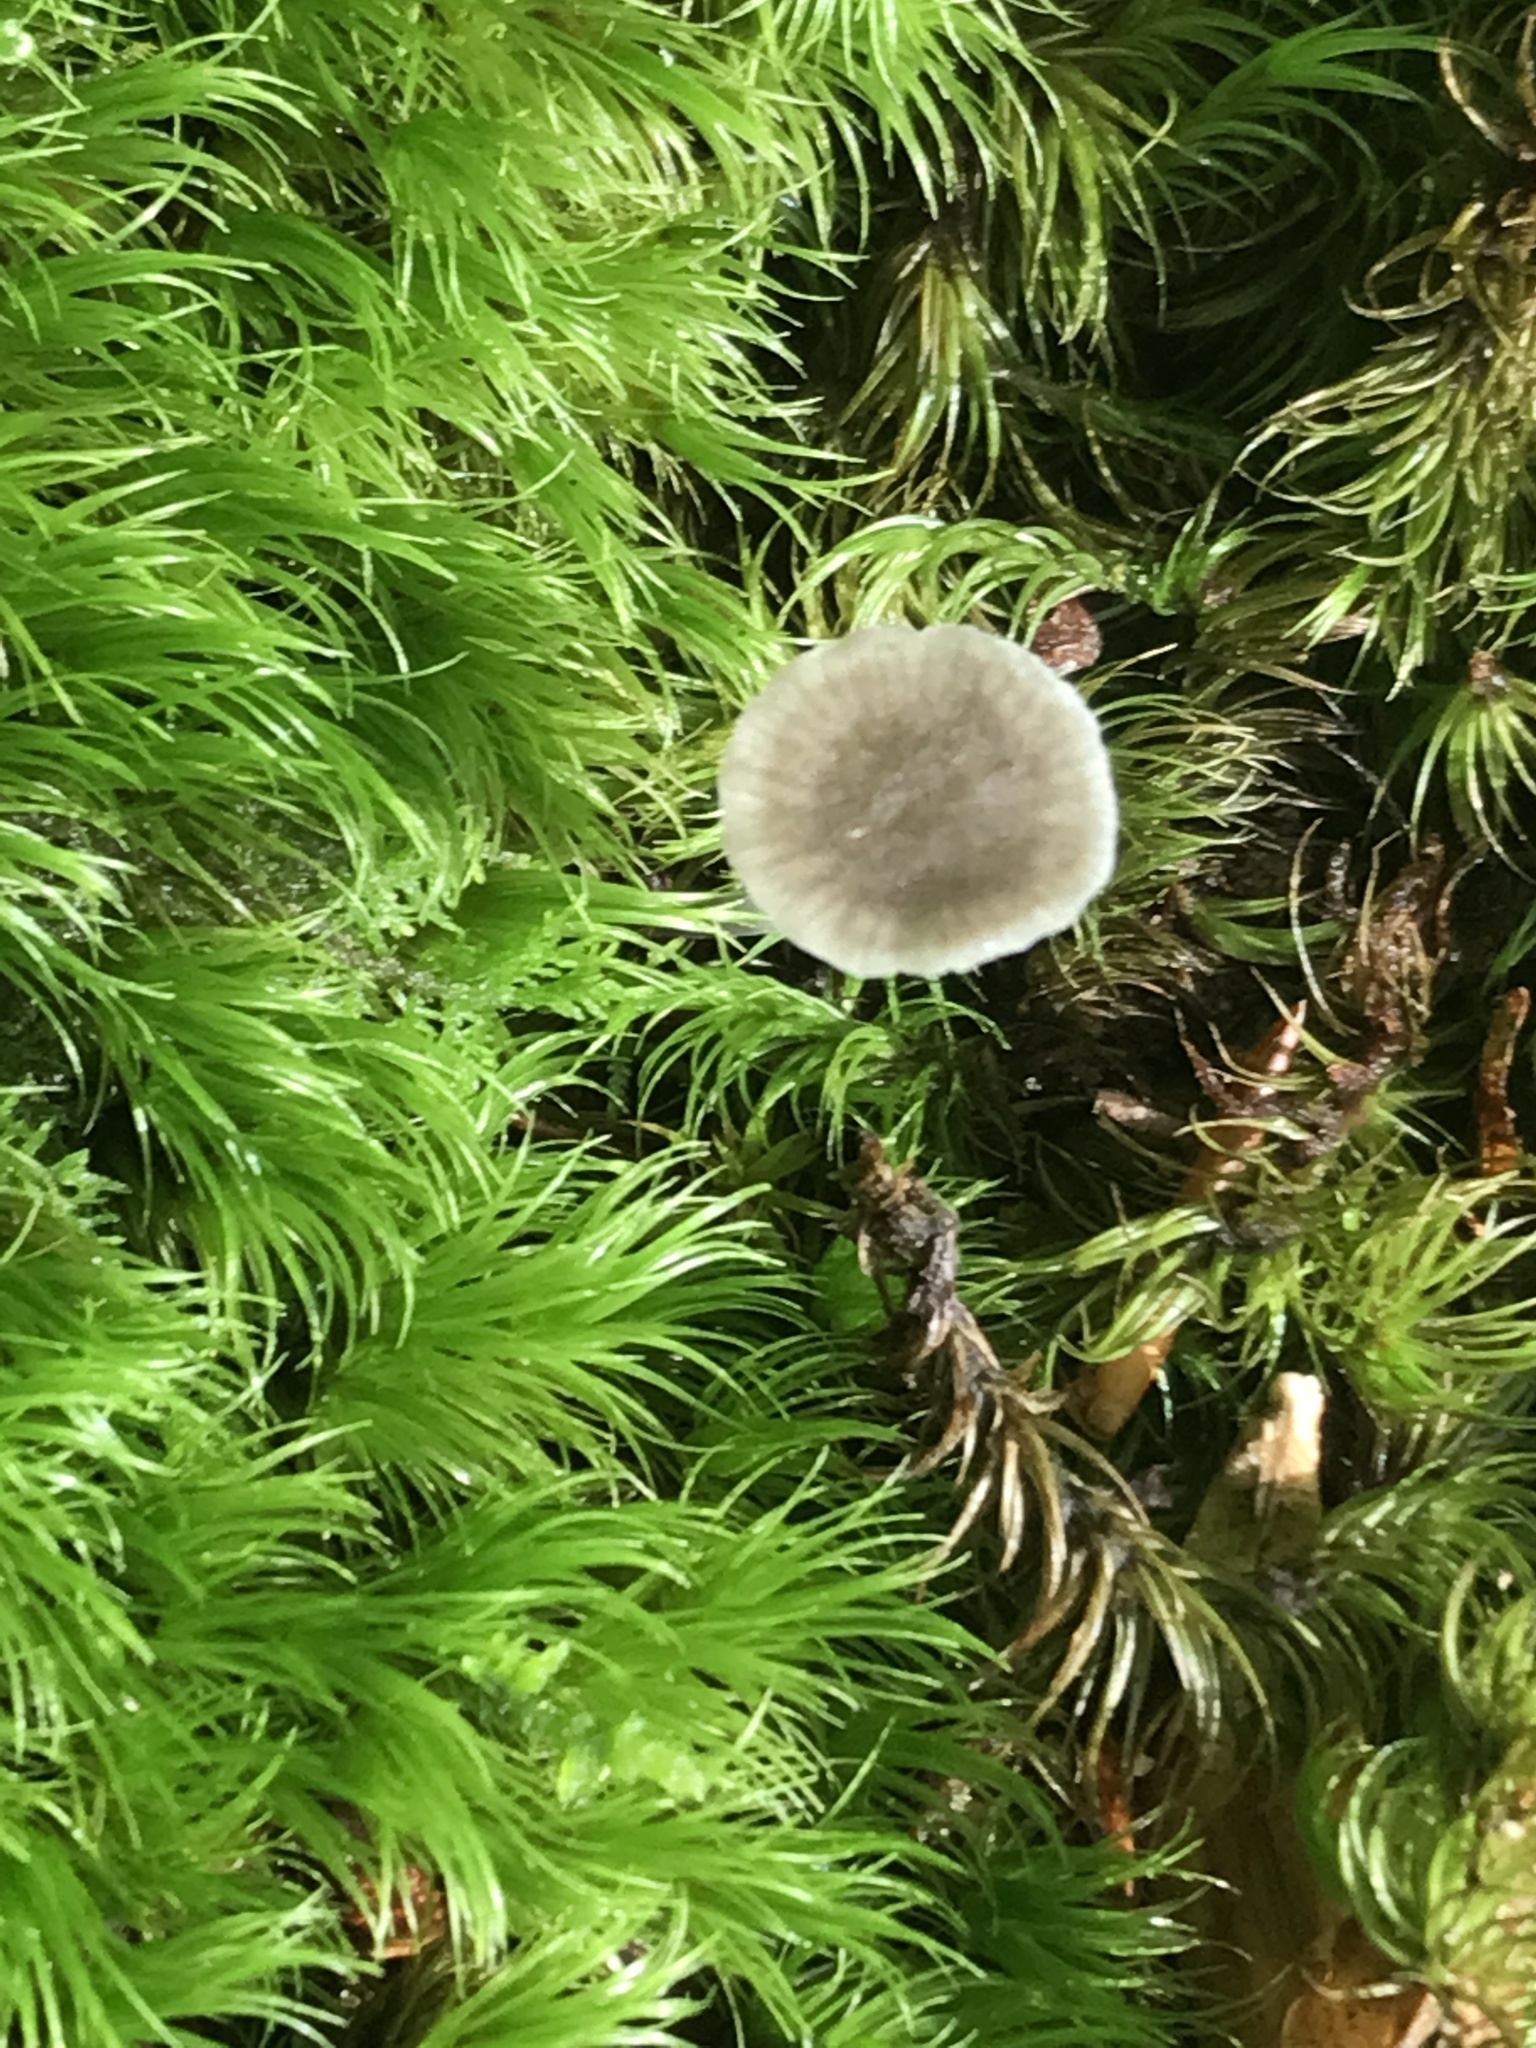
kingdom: Fungi
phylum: Basidiomycota
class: Agaricomycetes
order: Agaricales
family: Mycenaceae
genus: Hydropus
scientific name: Hydropus praedecurrens
